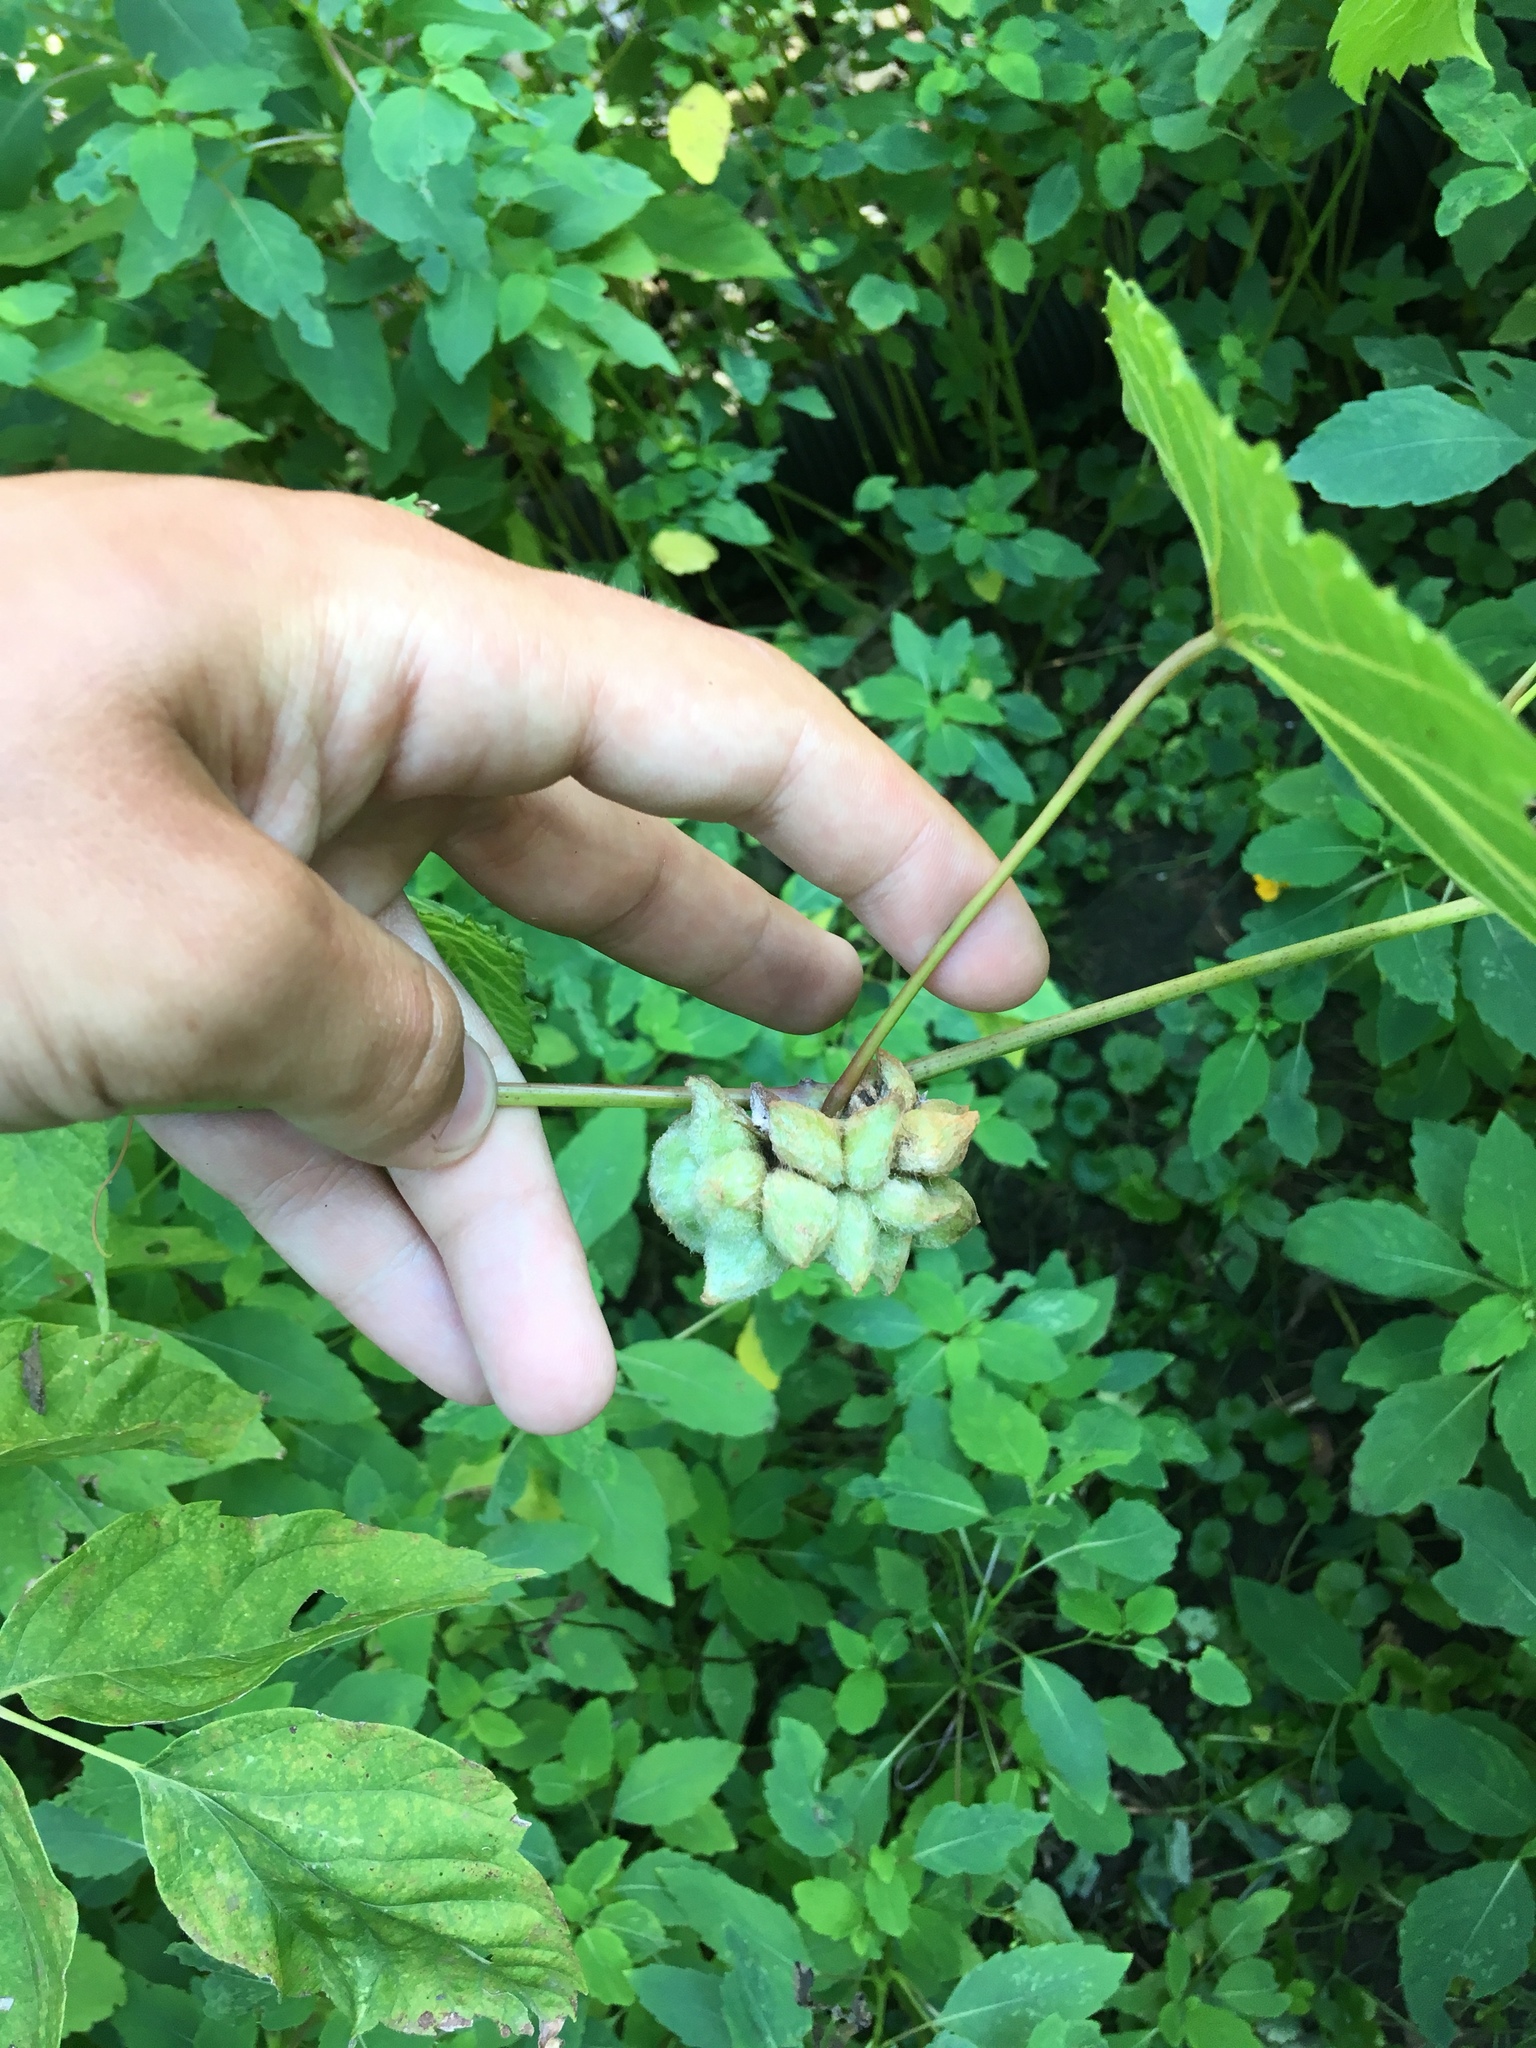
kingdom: Animalia
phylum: Arthropoda
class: Insecta
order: Diptera
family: Cecidomyiidae
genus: Ampelomyia
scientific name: Ampelomyia vitiscoryloides
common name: Grape filbert gall
